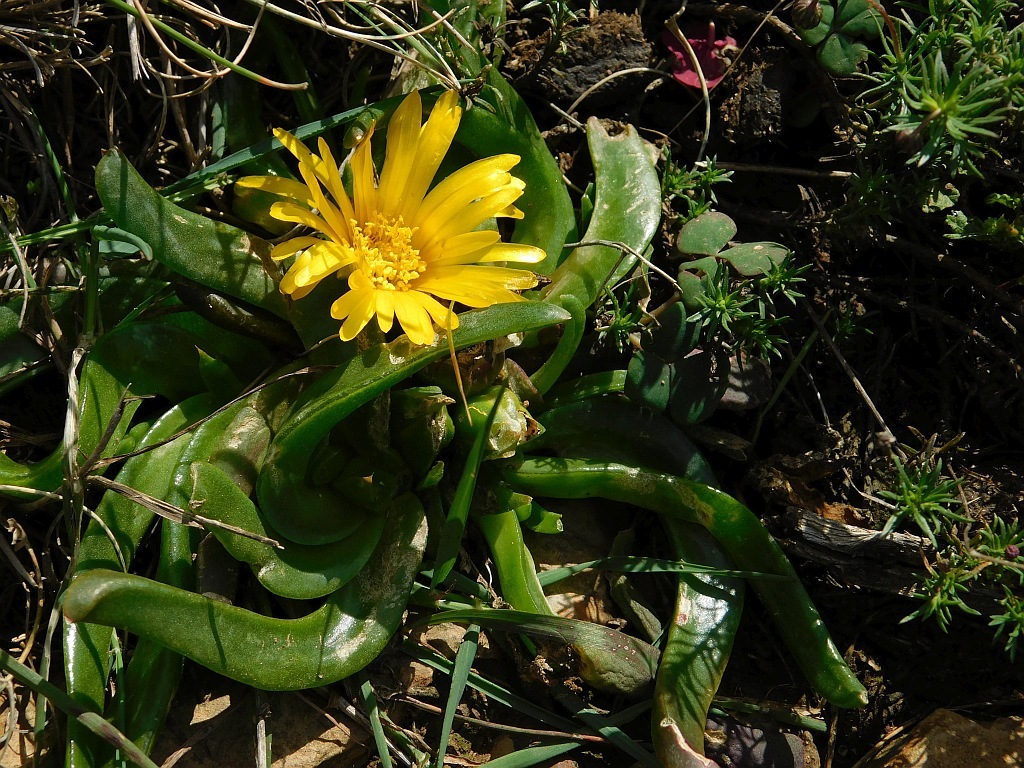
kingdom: Plantae
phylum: Tracheophyta
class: Magnoliopsida
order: Caryophyllales
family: Aizoaceae
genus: Glottiphyllum
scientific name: Glottiphyllum depressum
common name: Fig-marigold
